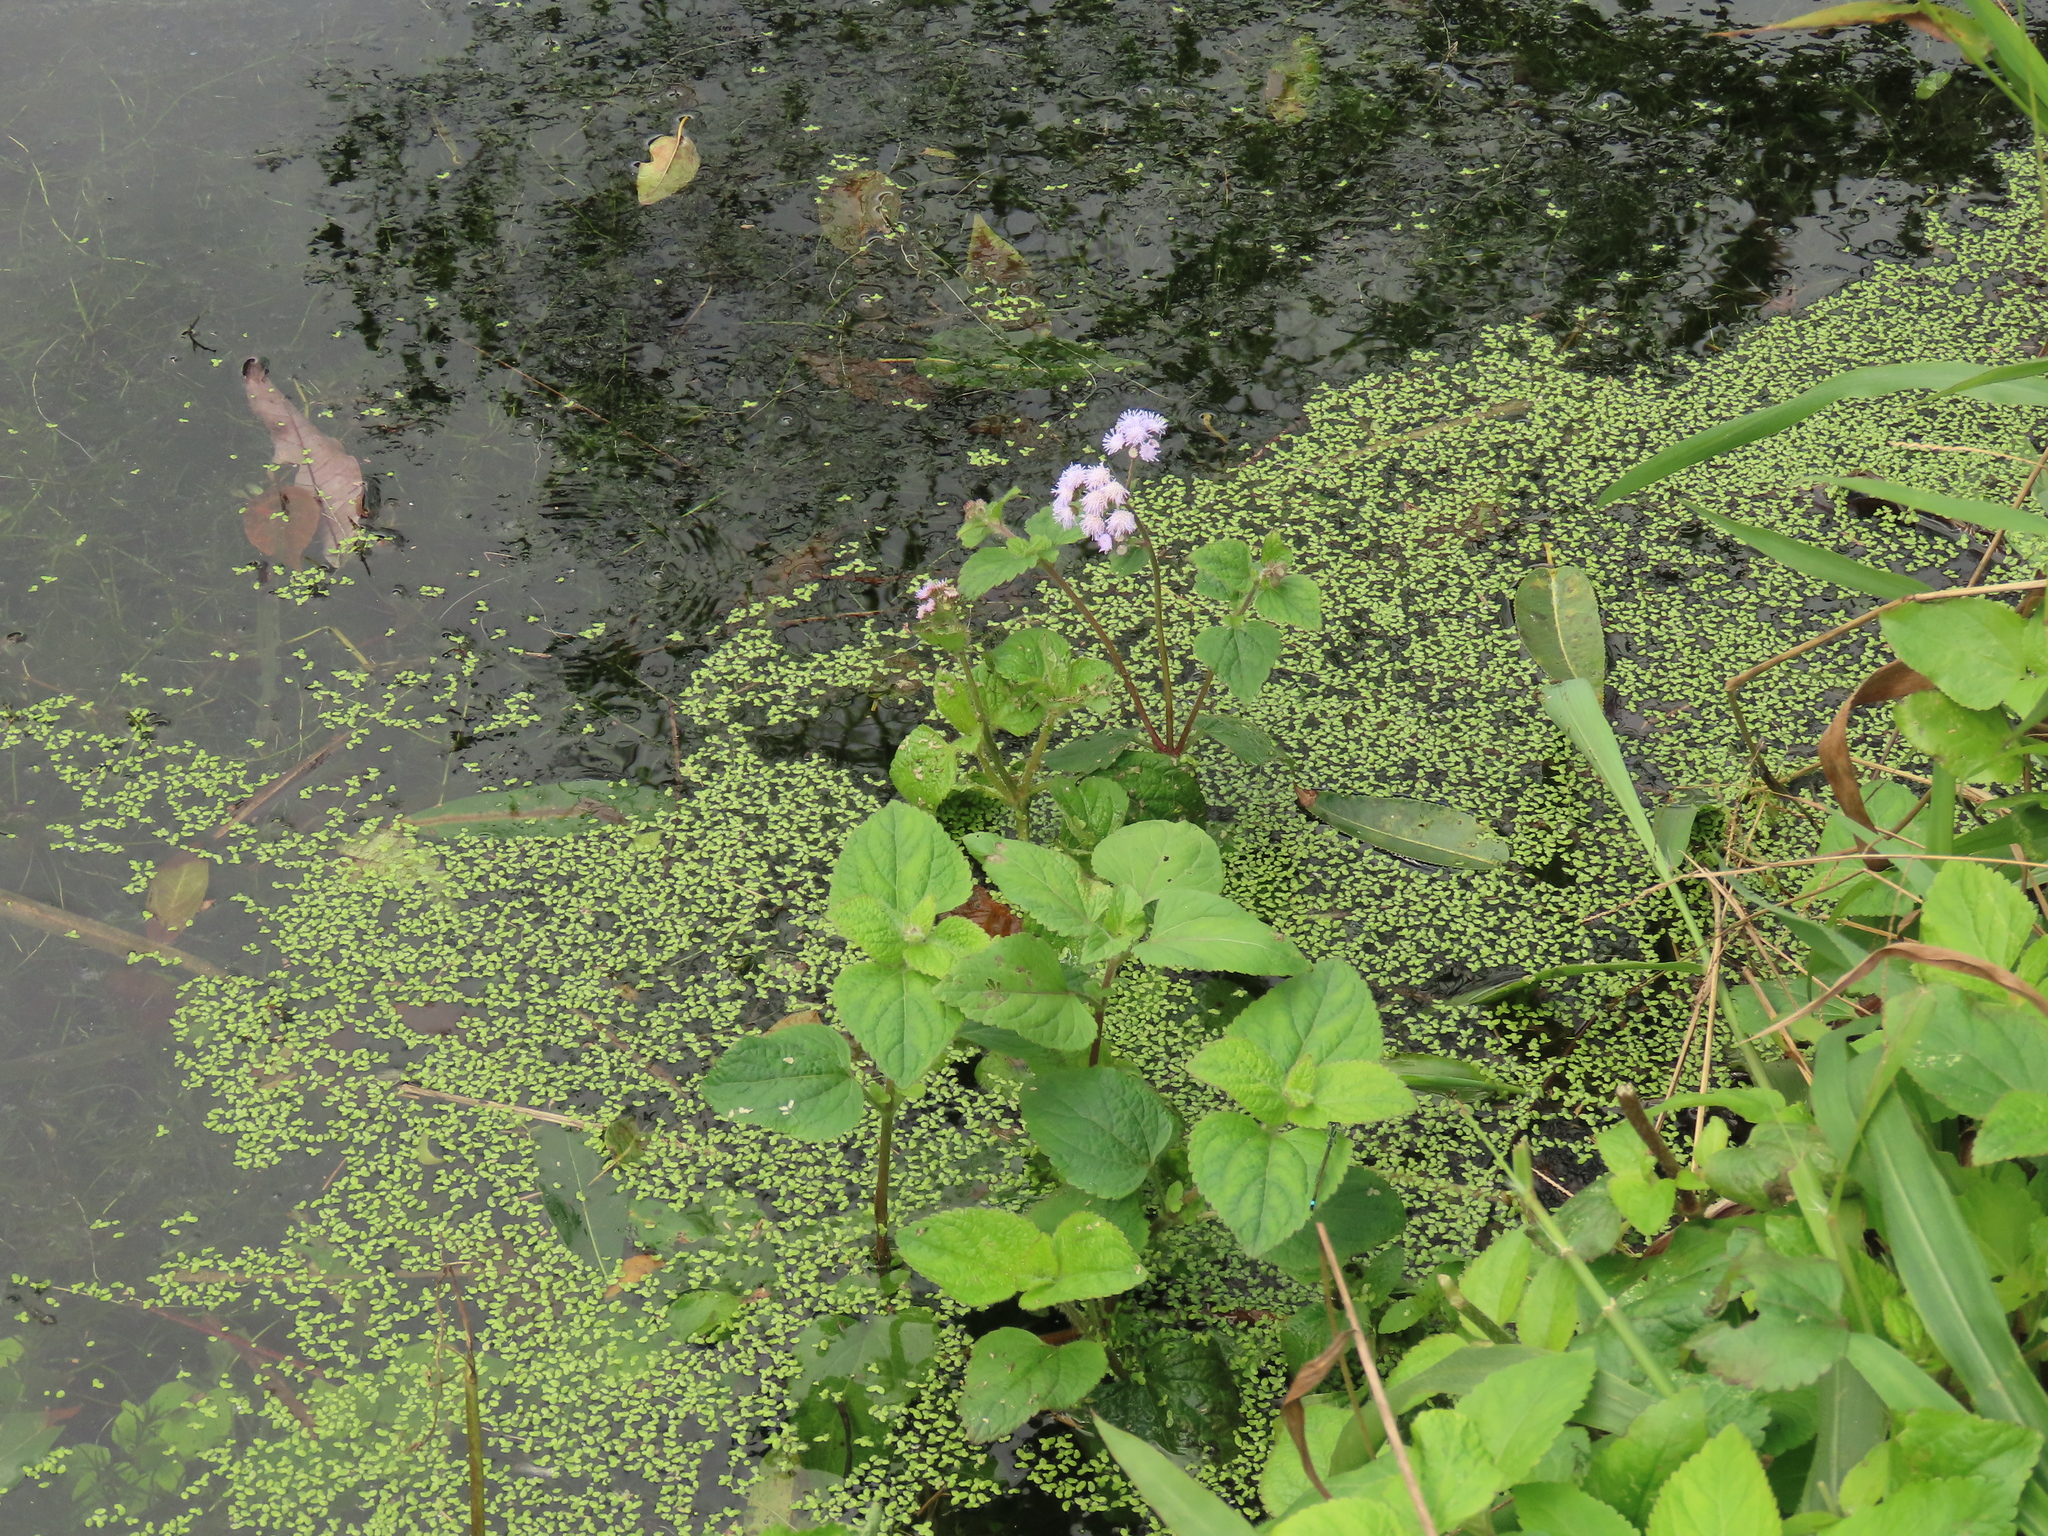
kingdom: Plantae
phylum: Tracheophyta
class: Magnoliopsida
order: Asterales
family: Asteraceae
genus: Ageratum
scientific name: Ageratum houstonianum
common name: Bluemink
